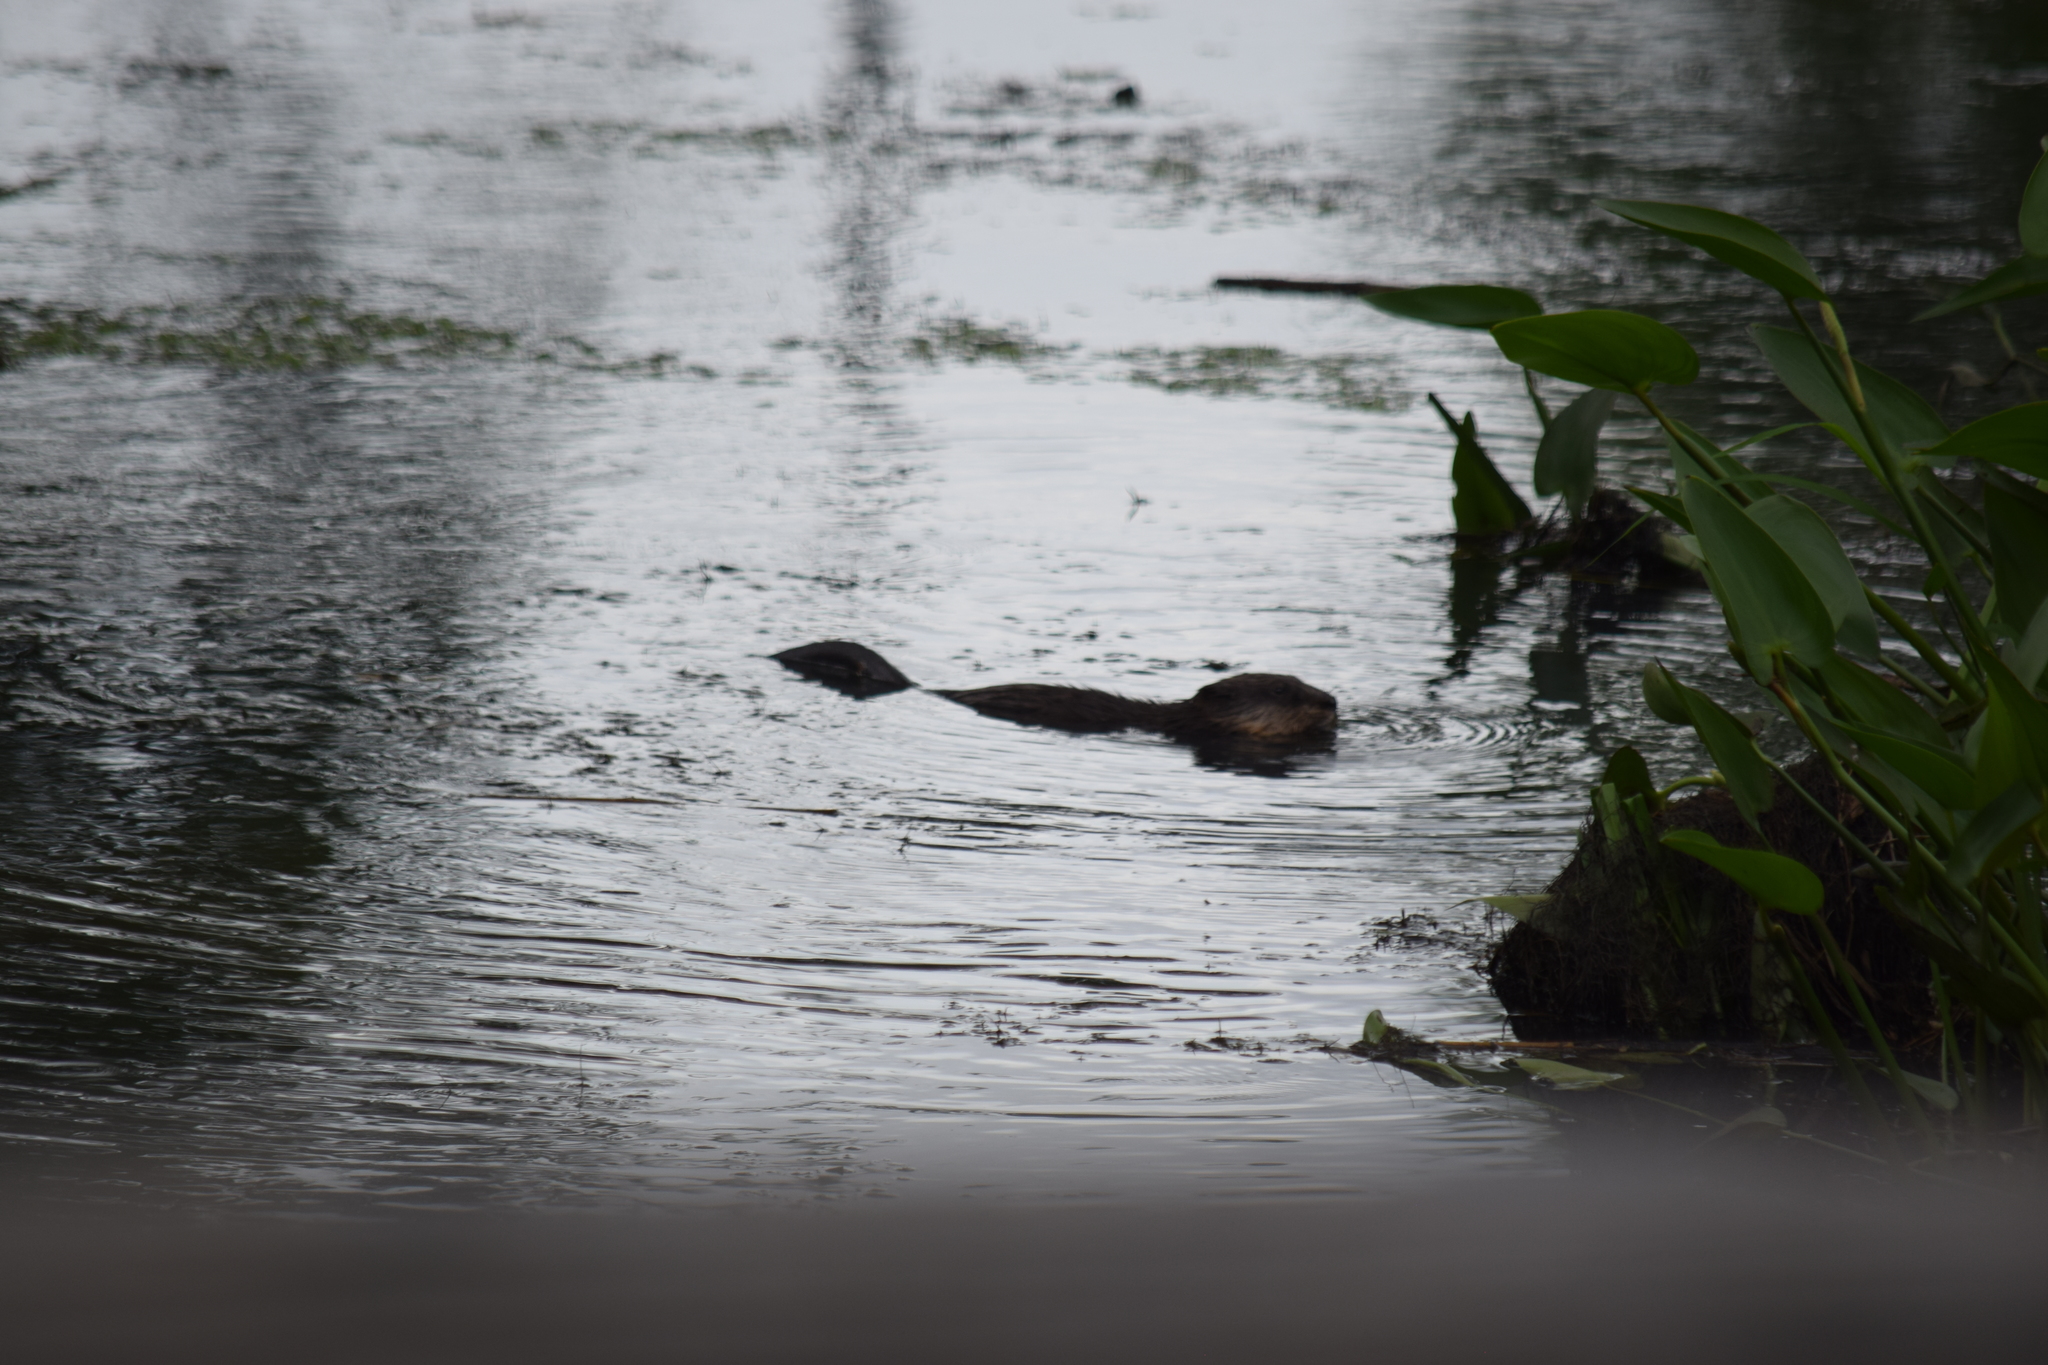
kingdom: Animalia
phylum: Chordata
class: Mammalia
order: Rodentia
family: Cricetidae
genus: Ondatra
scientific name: Ondatra zibethicus
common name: Muskrat
